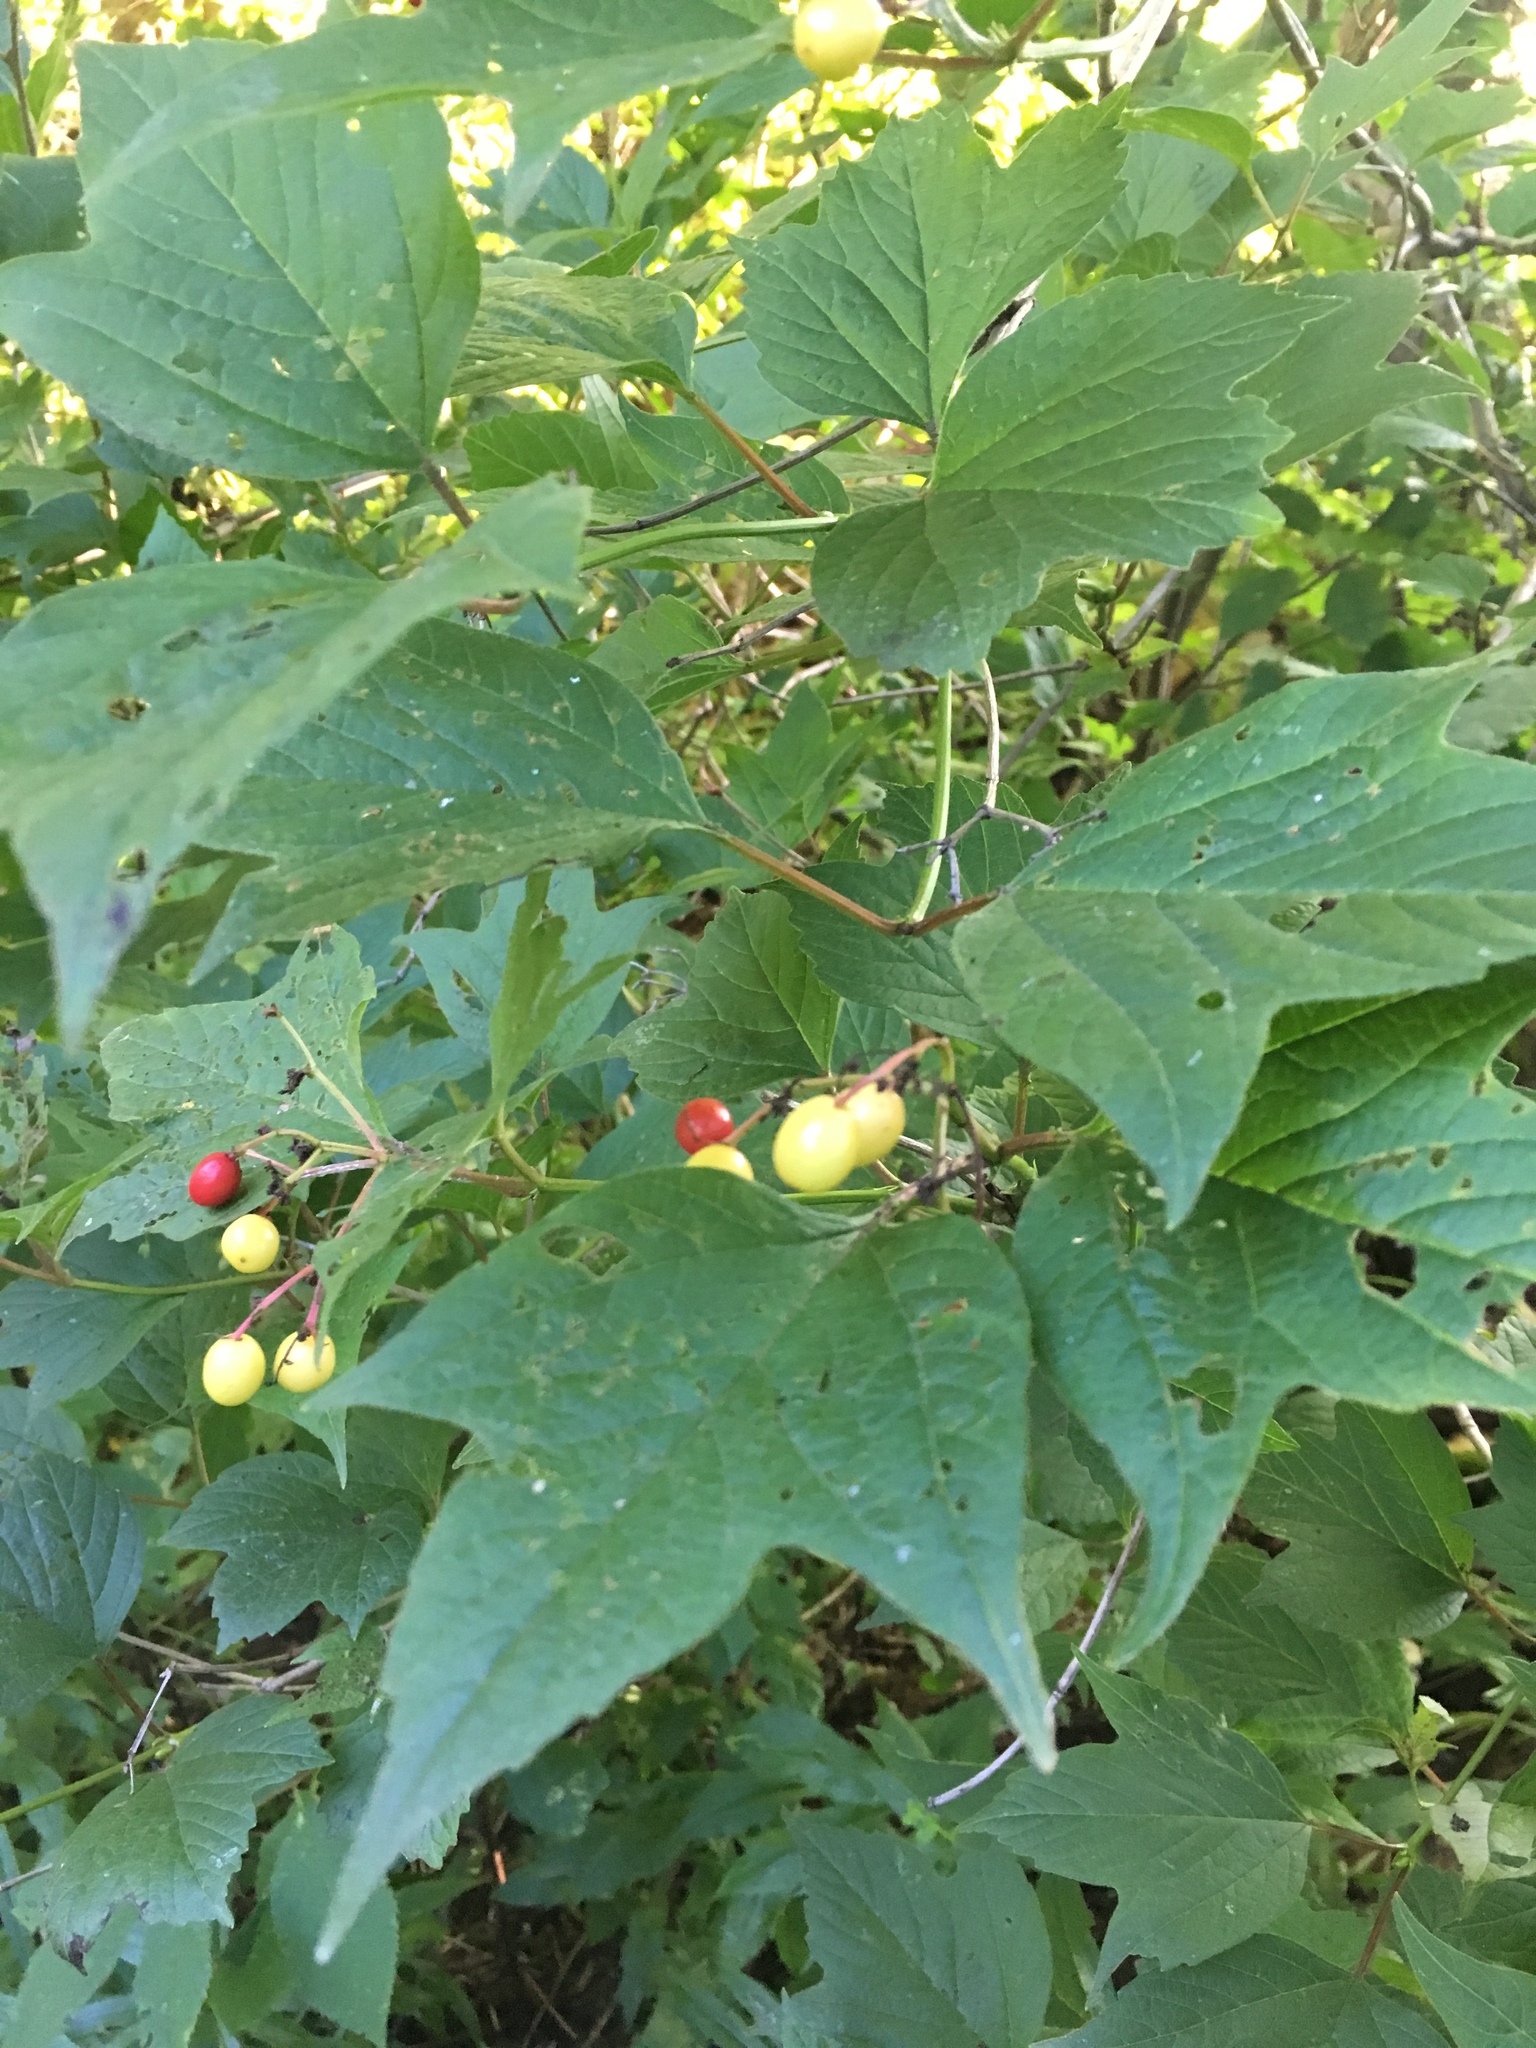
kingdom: Plantae
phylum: Tracheophyta
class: Magnoliopsida
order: Dipsacales
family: Viburnaceae
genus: Viburnum
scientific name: Viburnum opulus
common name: Guelder-rose
